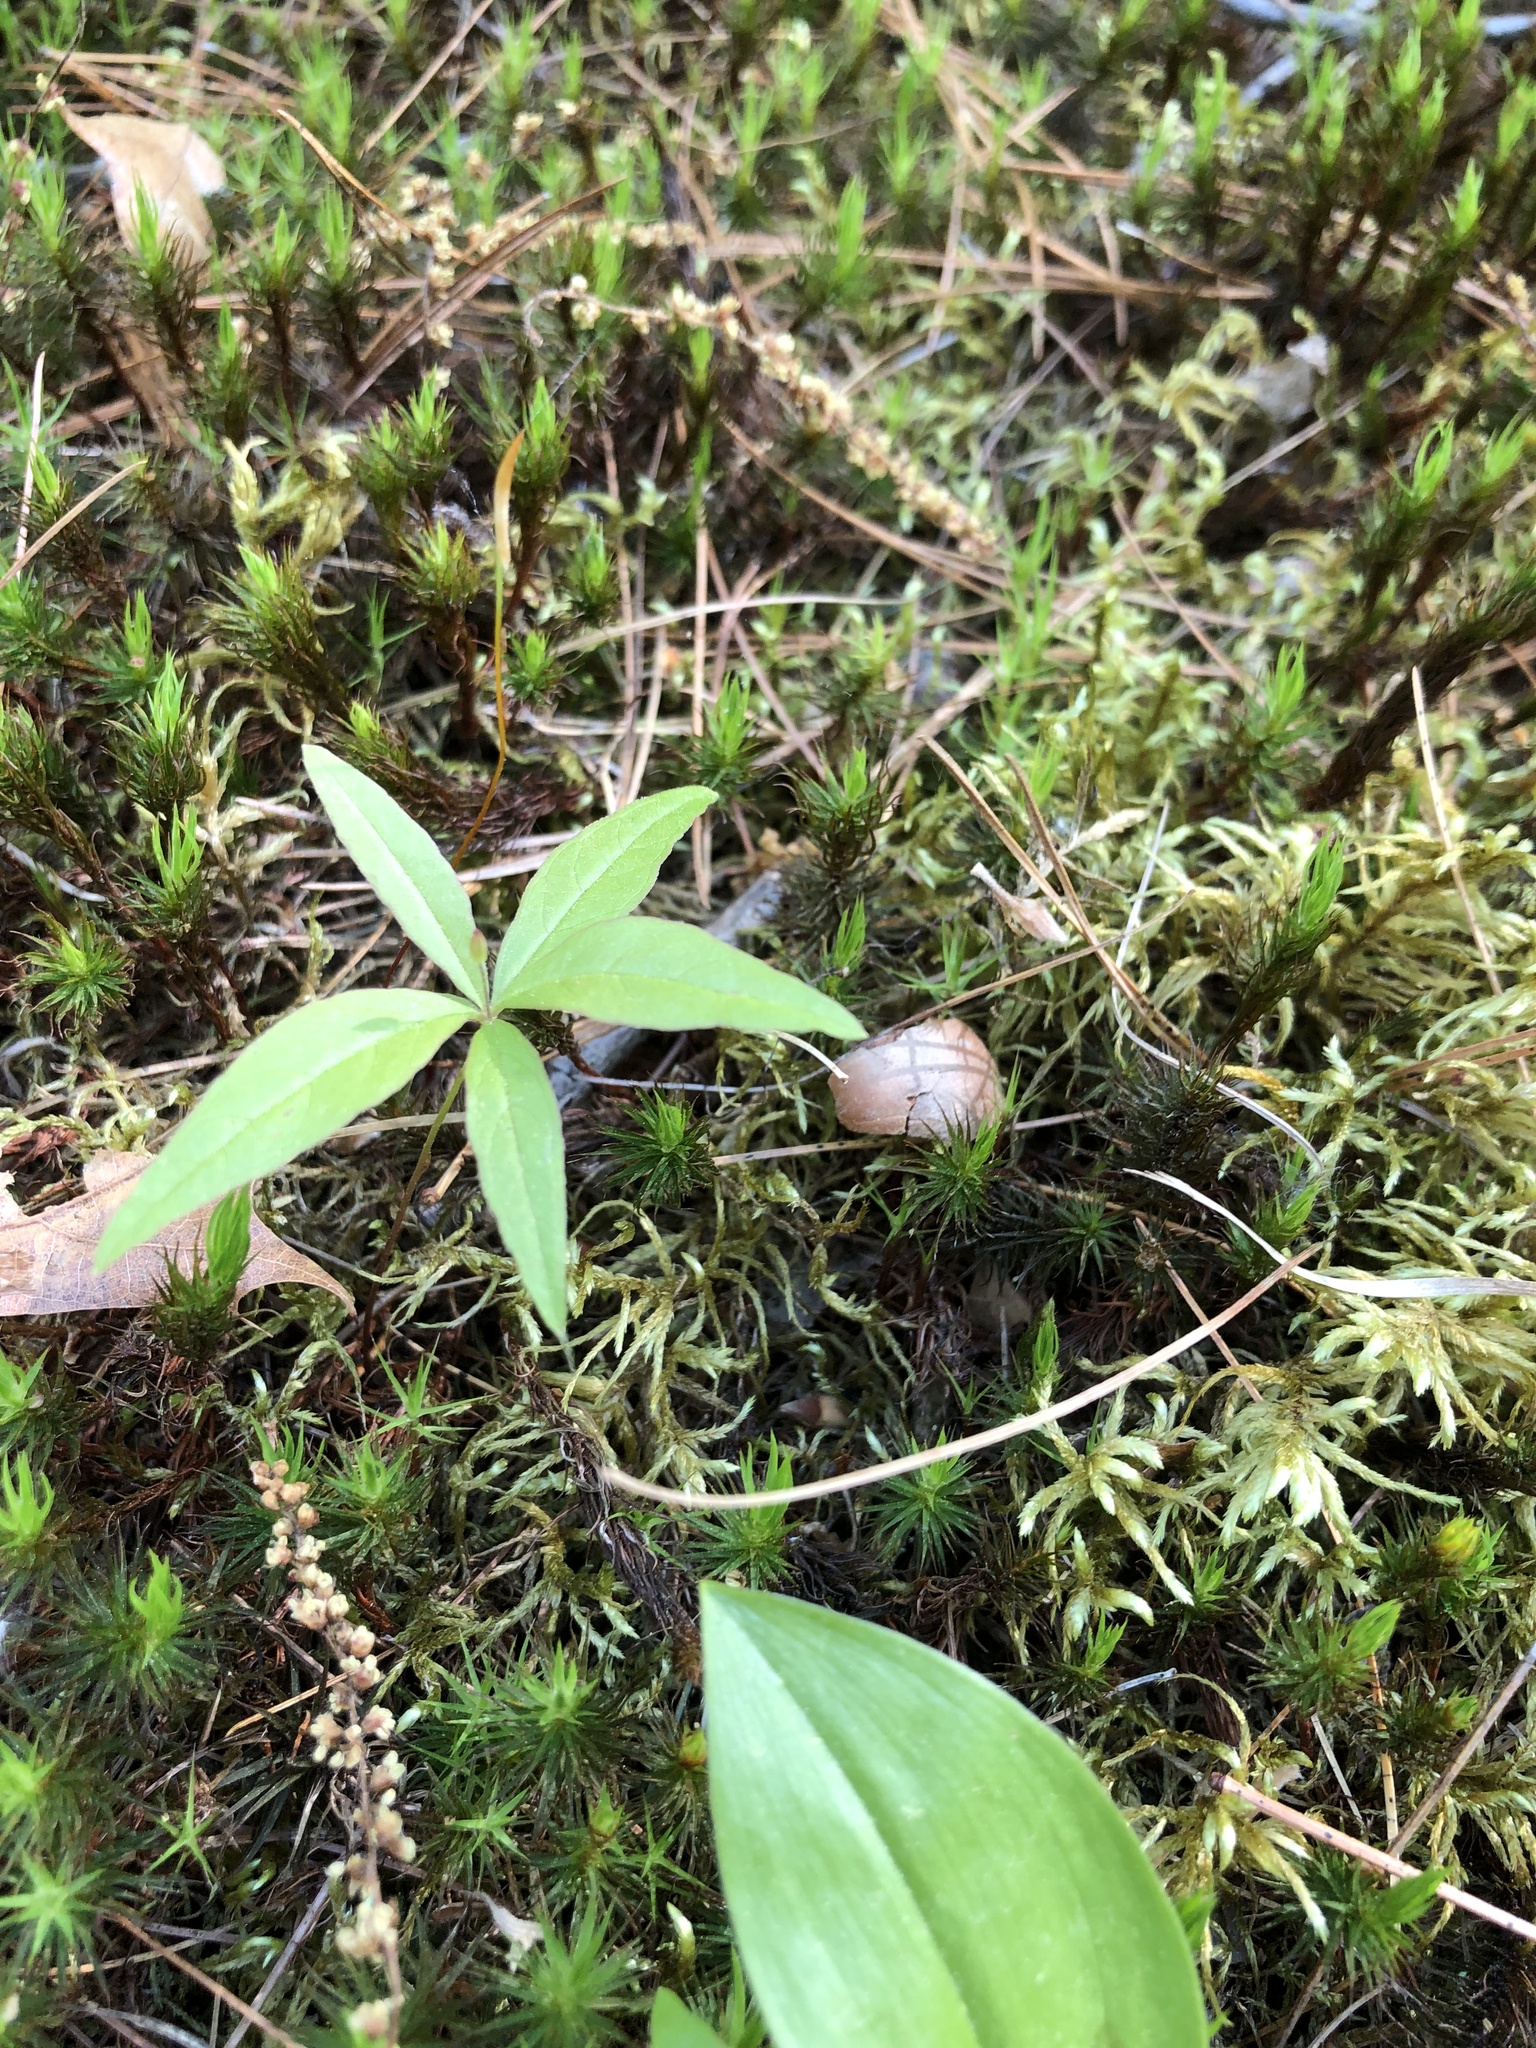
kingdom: Plantae
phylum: Tracheophyta
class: Magnoliopsida
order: Ericales
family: Primulaceae
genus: Lysimachia
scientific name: Lysimachia borealis
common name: American starflower
